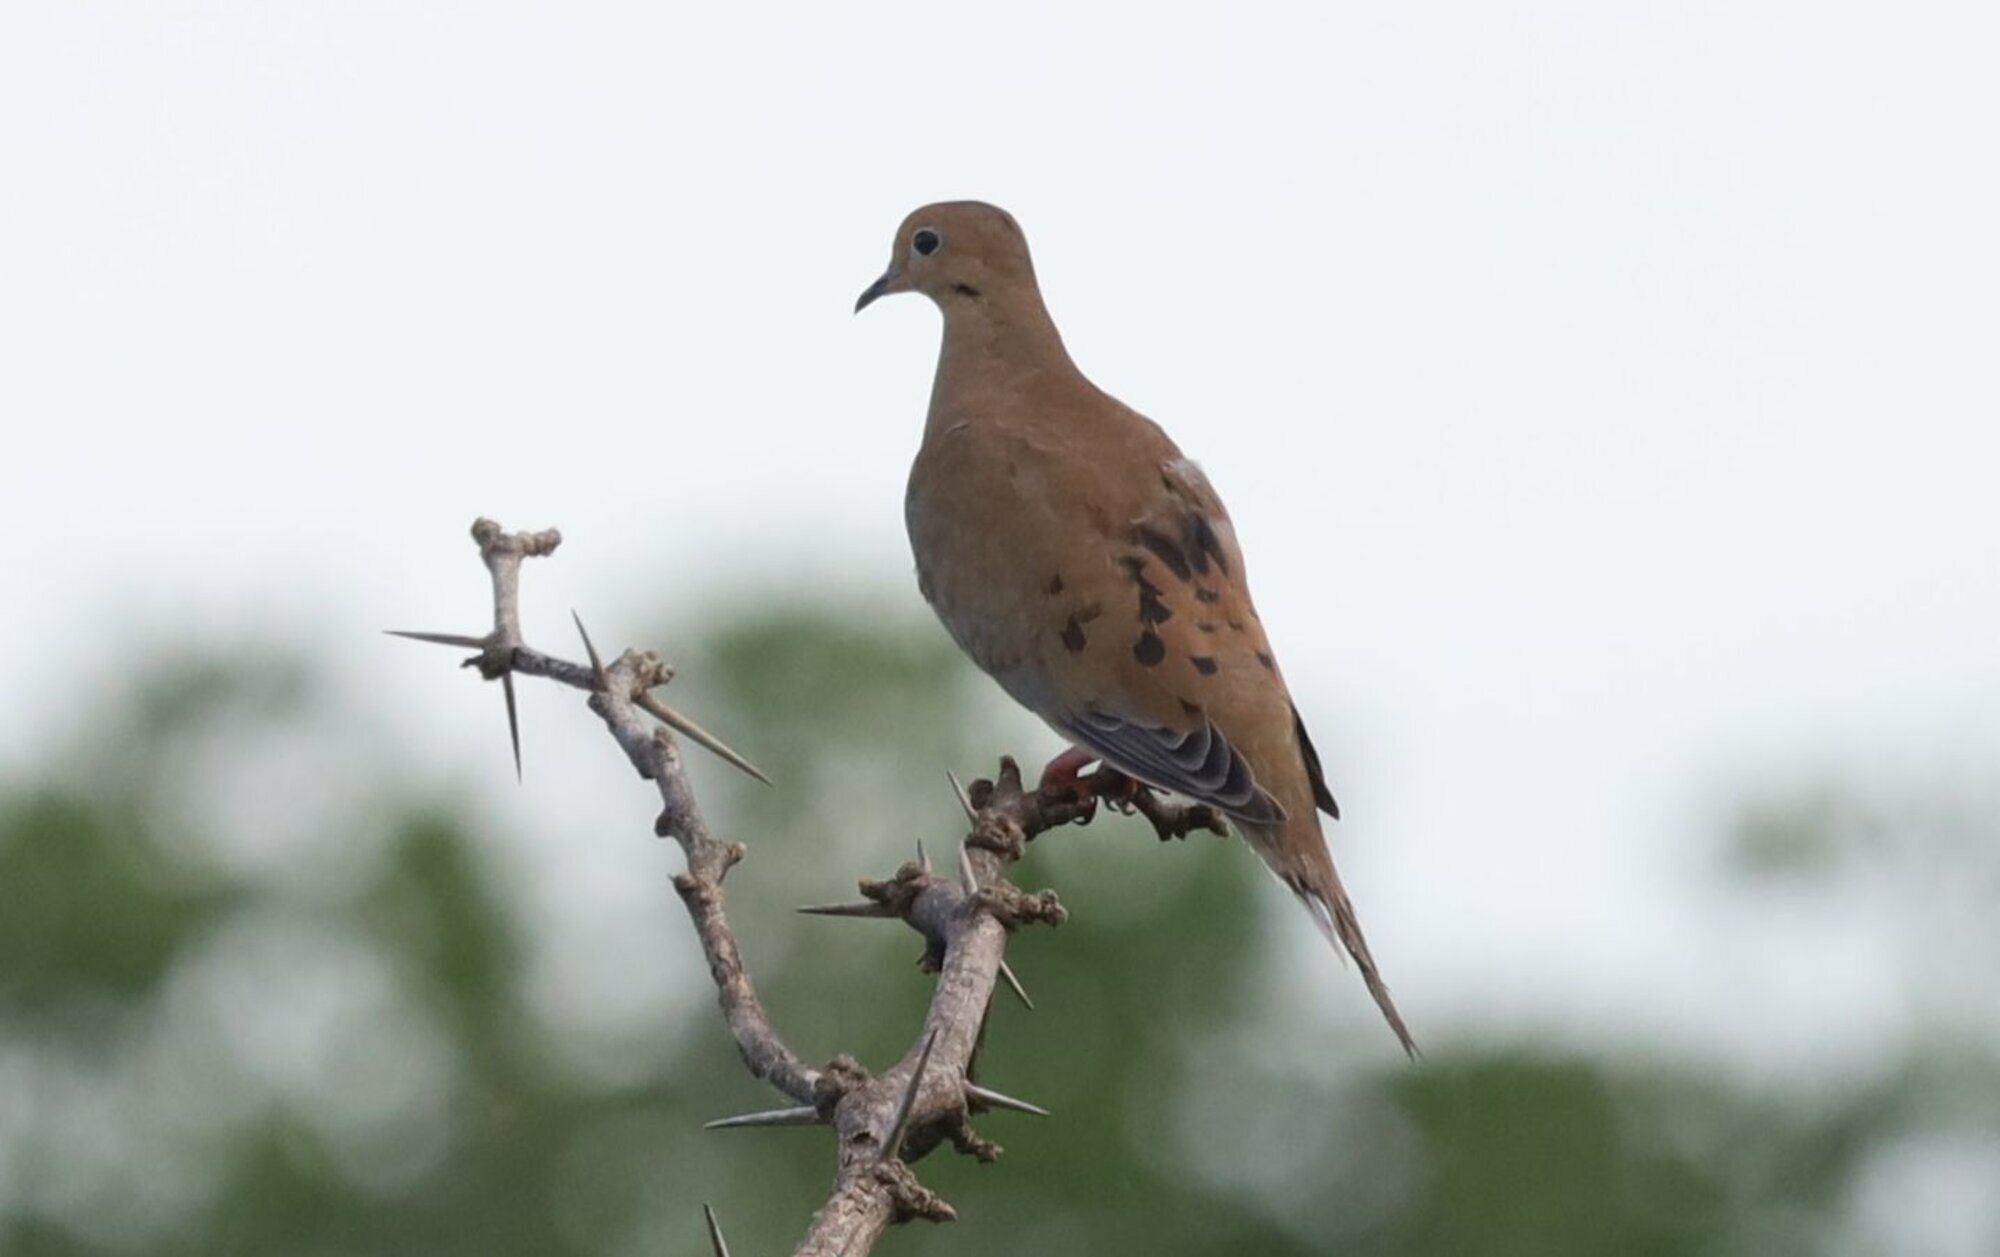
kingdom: Animalia
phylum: Chordata
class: Aves
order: Columbiformes
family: Columbidae
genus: Zenaida
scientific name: Zenaida macroura
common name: Mourning dove
